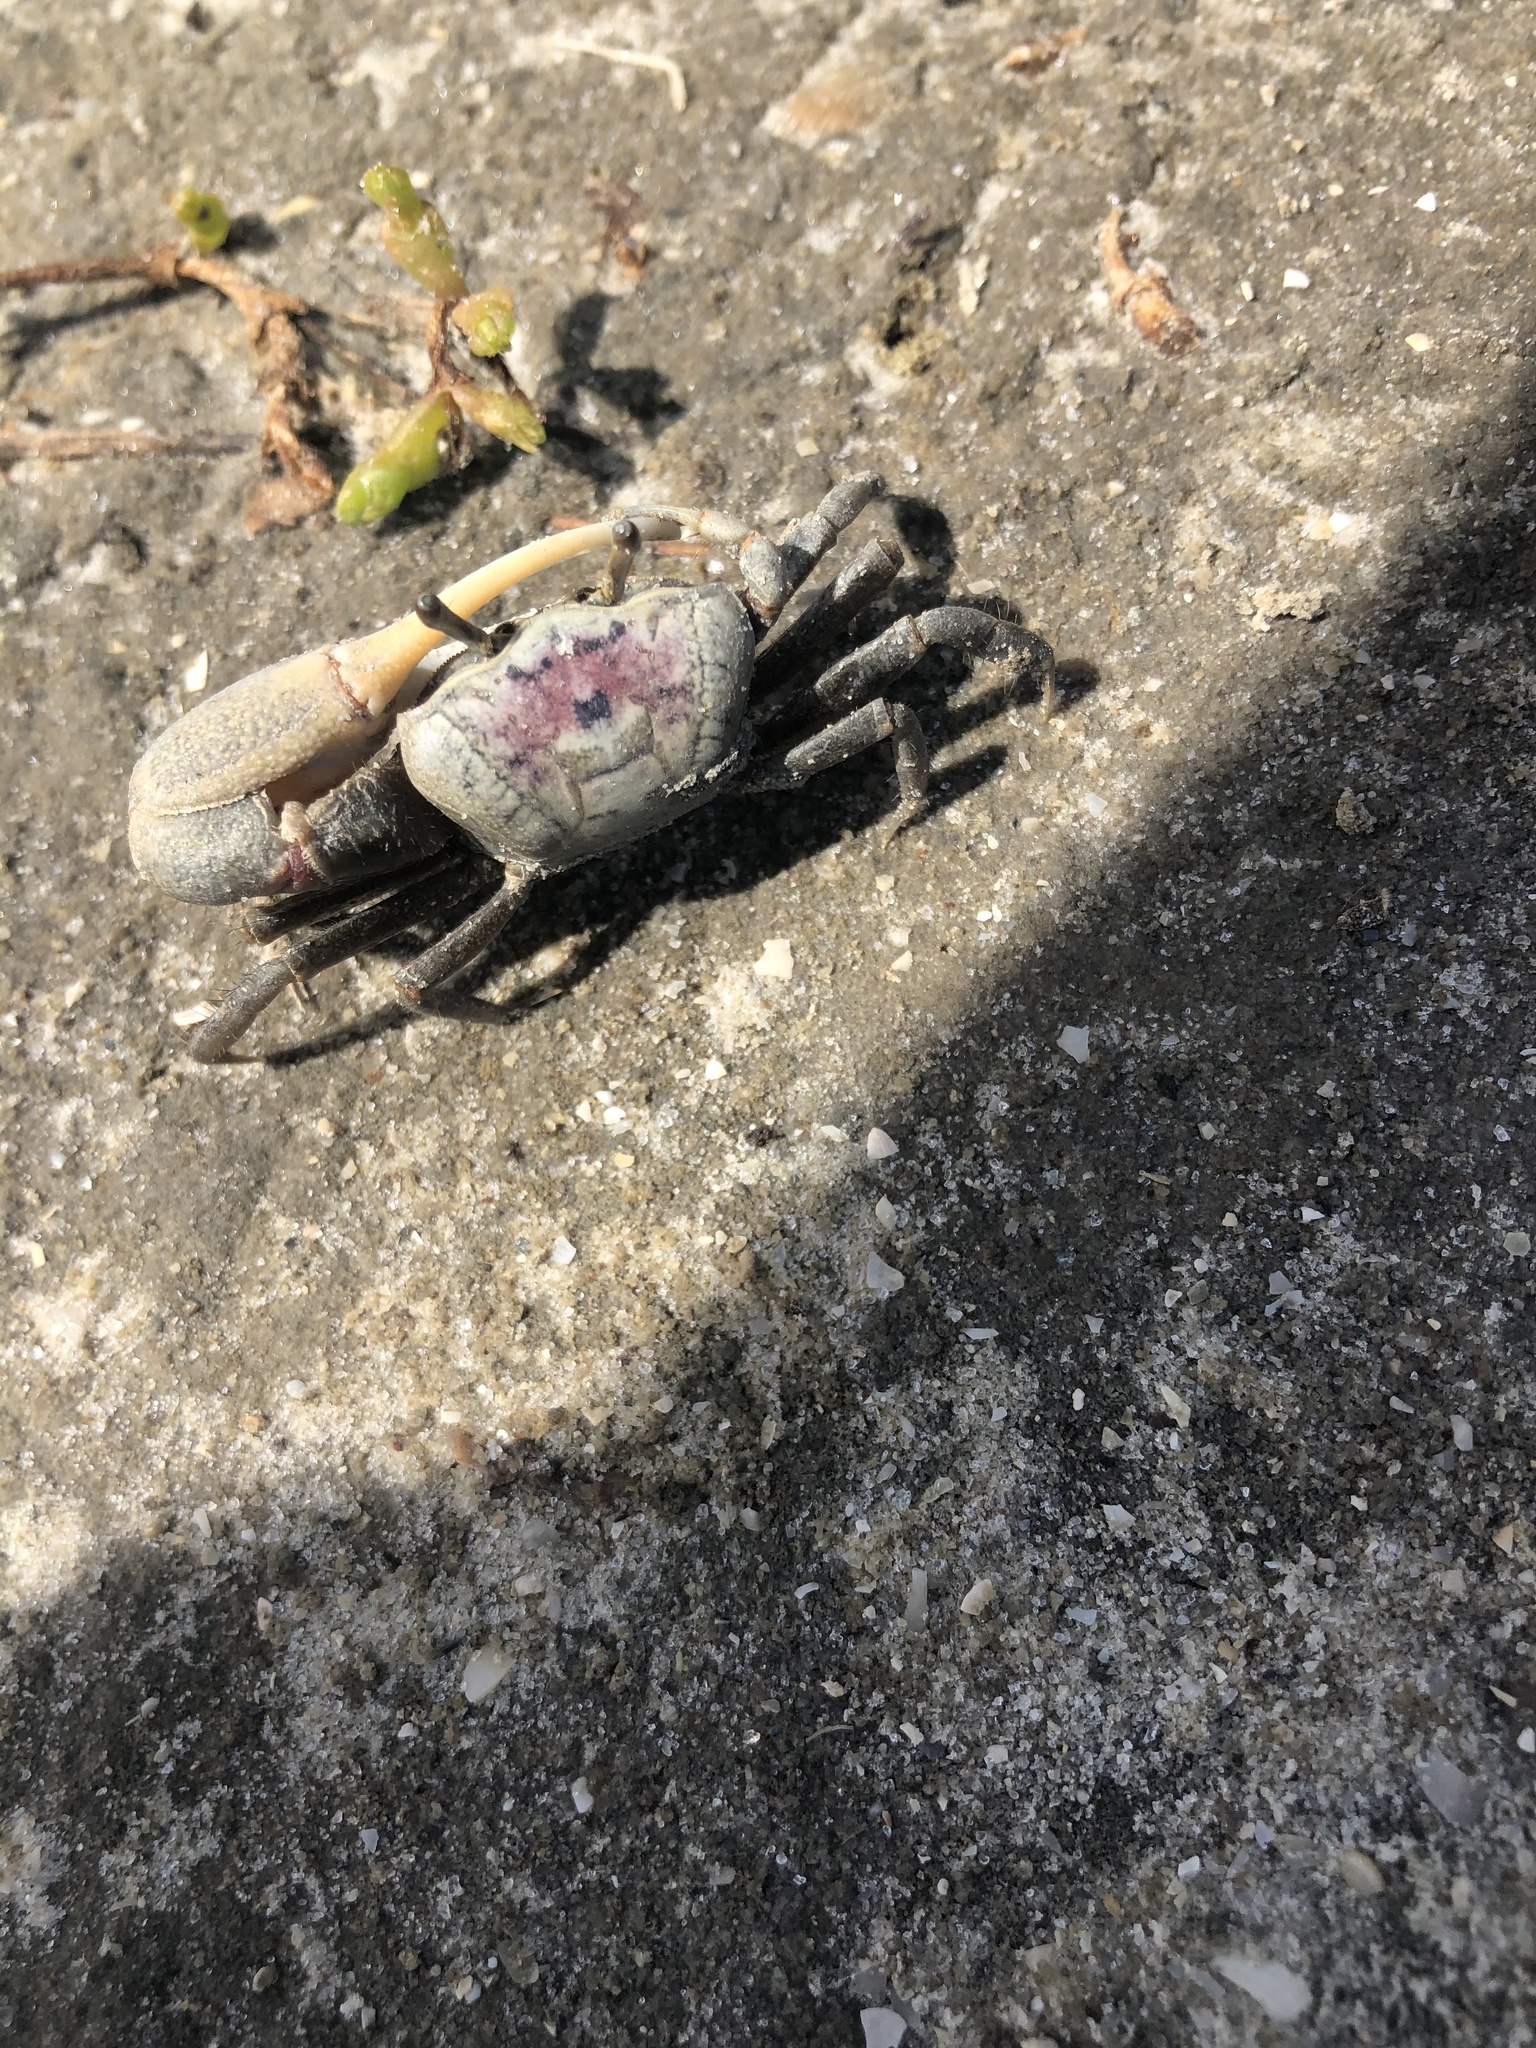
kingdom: Animalia
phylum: Arthropoda
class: Malacostraca
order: Decapoda
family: Ocypodidae
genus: Leptuca
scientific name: Leptuca pugilator
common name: Atlantic sand fiddler crab
